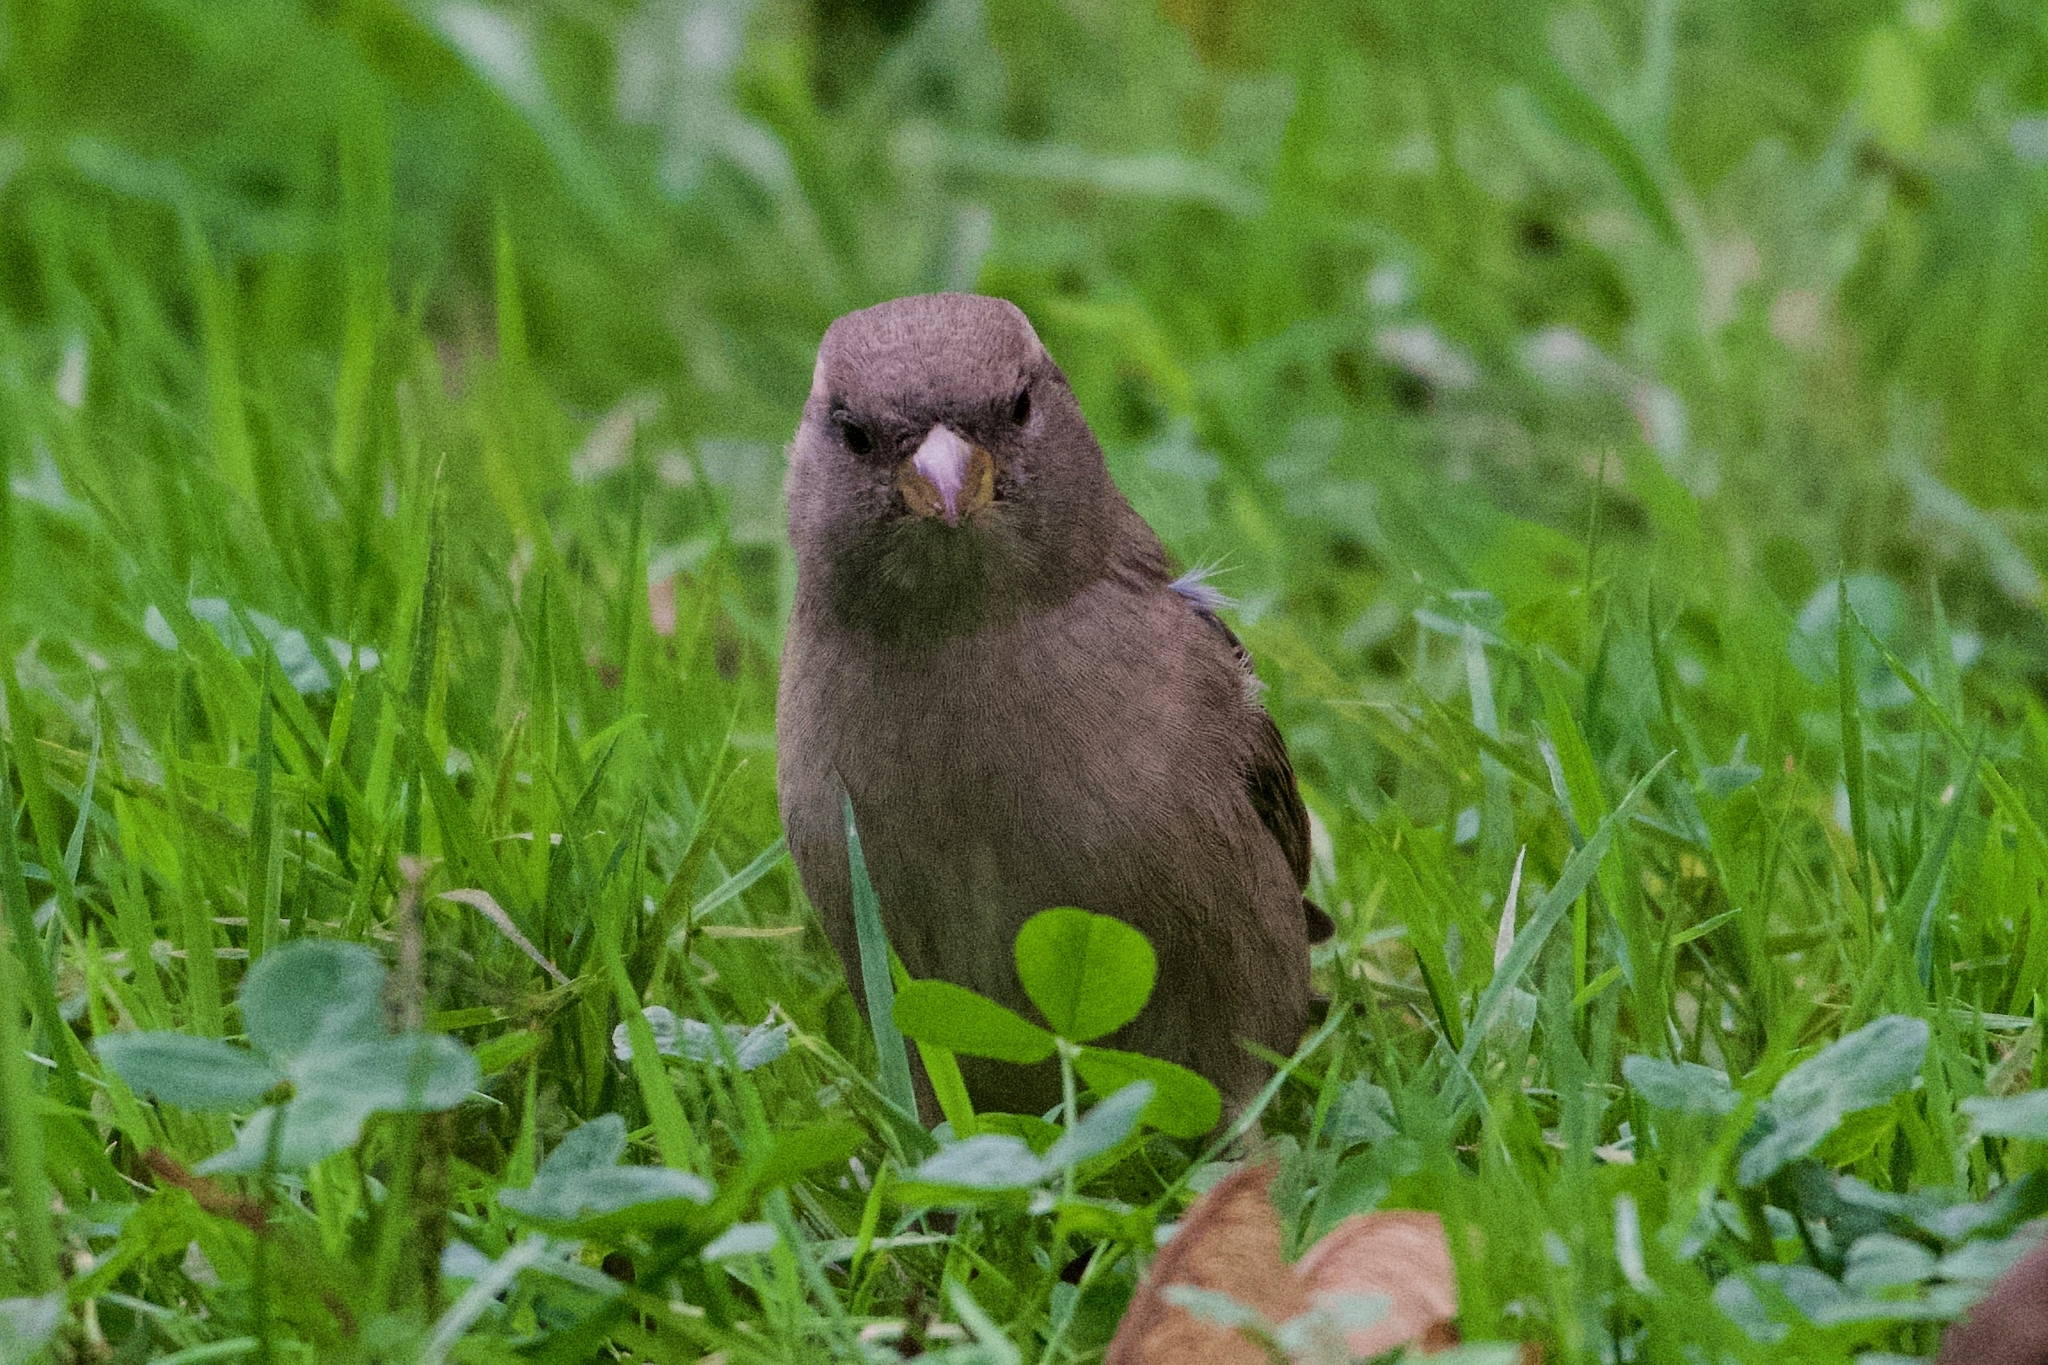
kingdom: Animalia
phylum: Chordata
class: Aves
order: Passeriformes
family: Passeridae
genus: Passer
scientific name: Passer domesticus
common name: House sparrow
